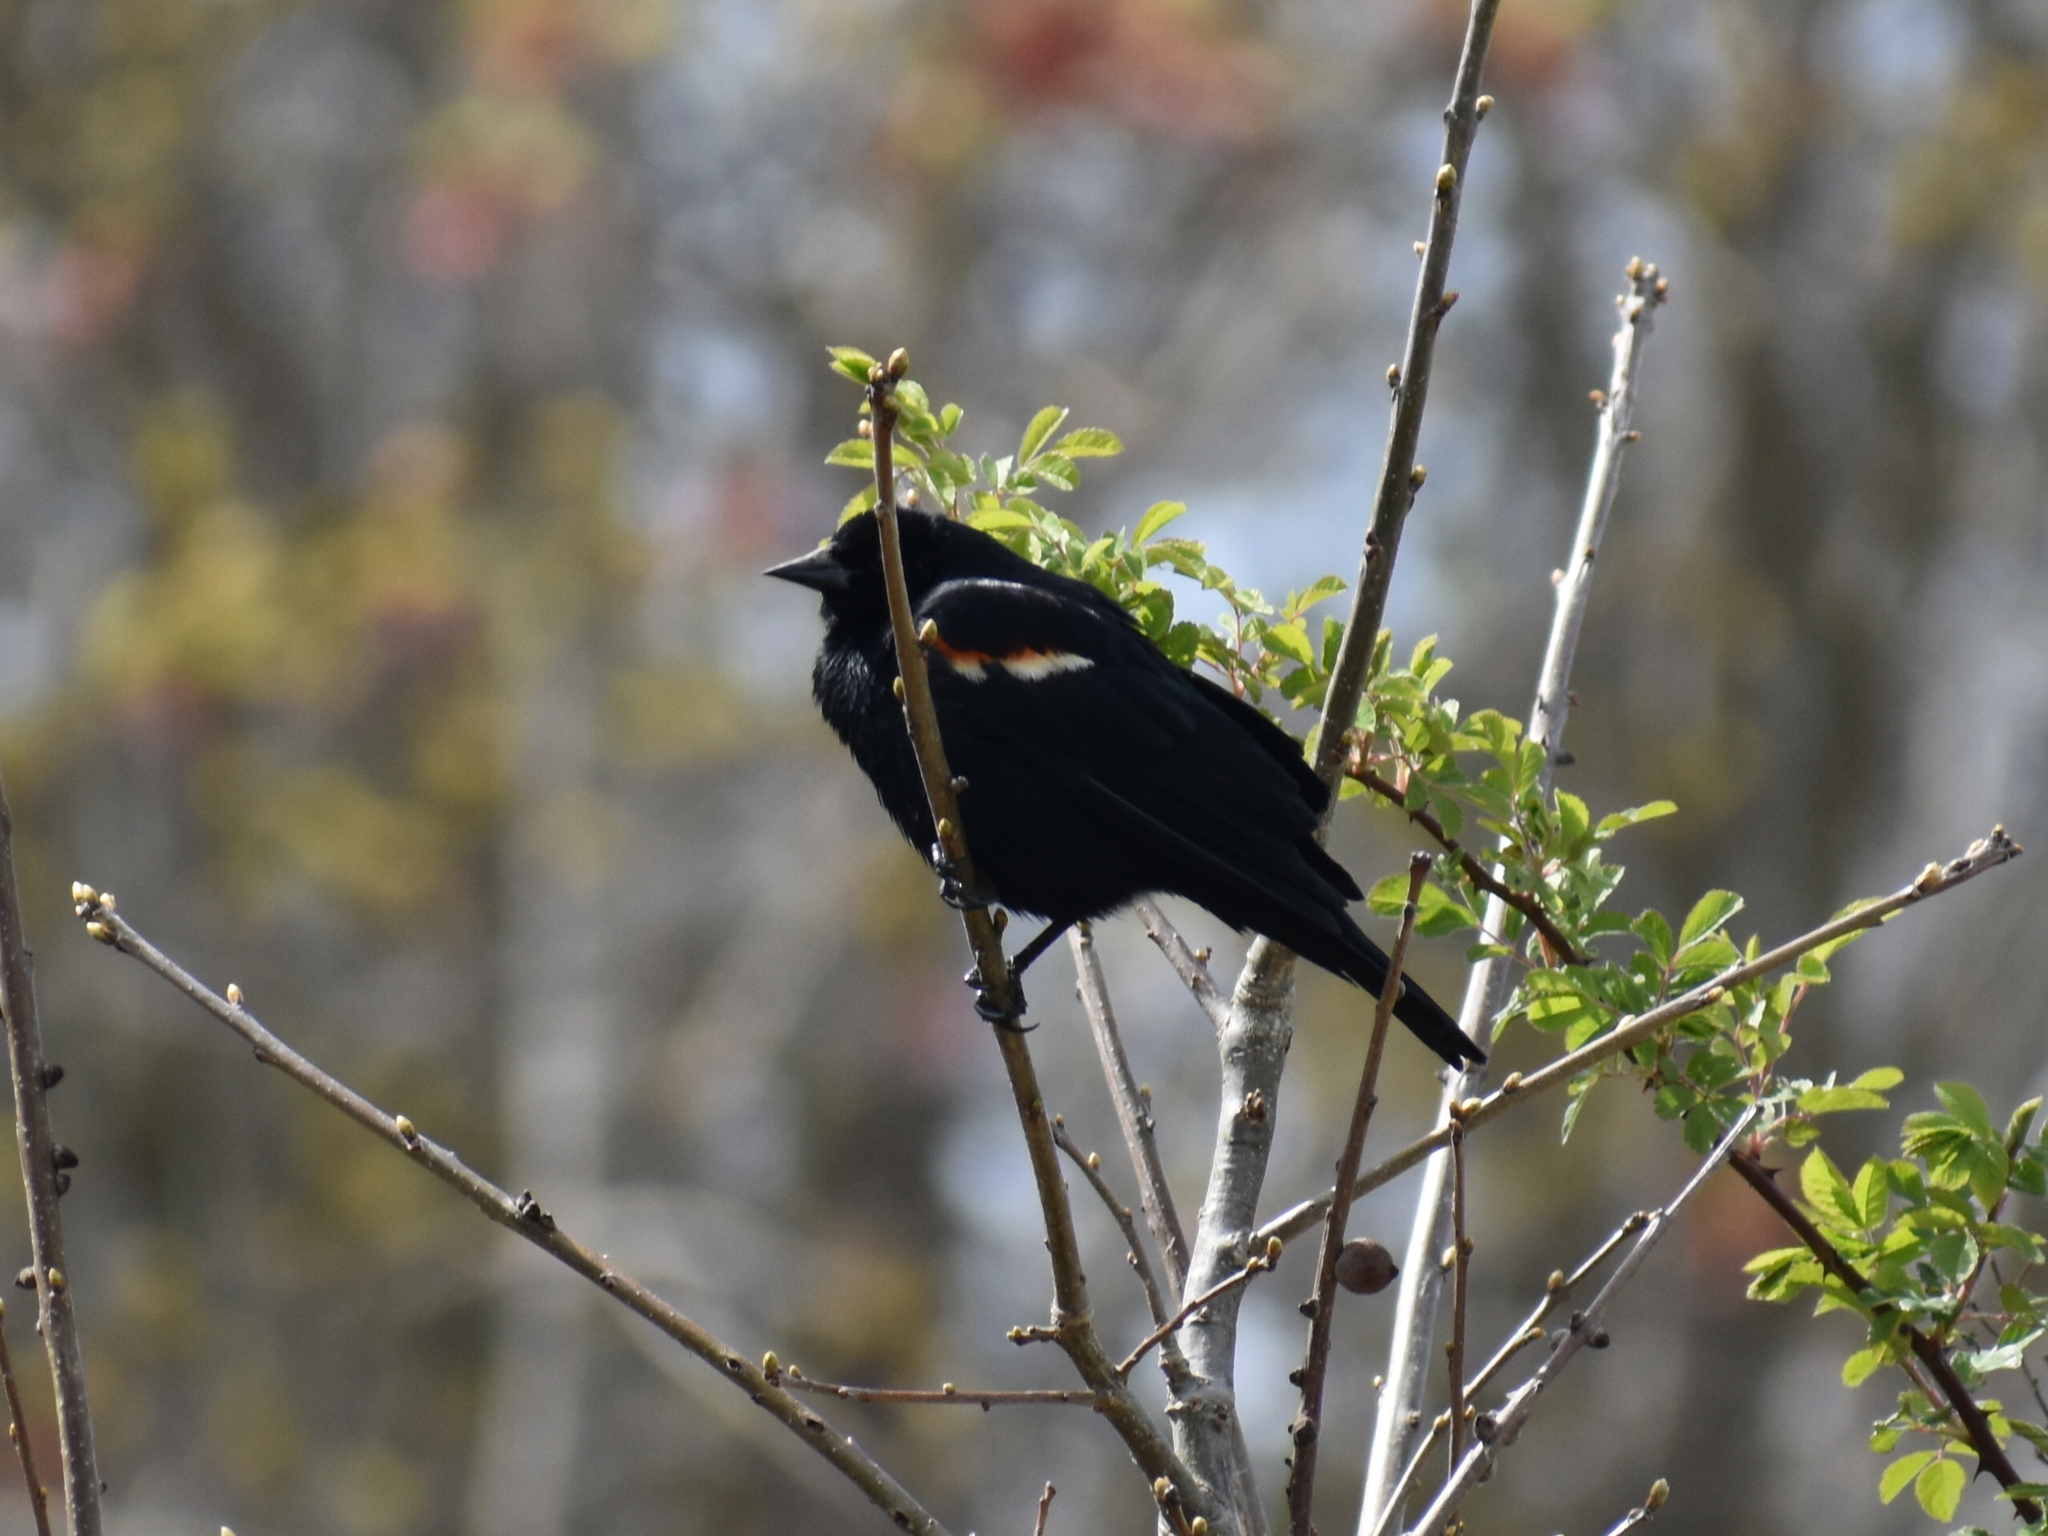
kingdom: Animalia
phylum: Chordata
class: Aves
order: Passeriformes
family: Icteridae
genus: Agelaius
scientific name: Agelaius phoeniceus
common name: Red-winged blackbird
